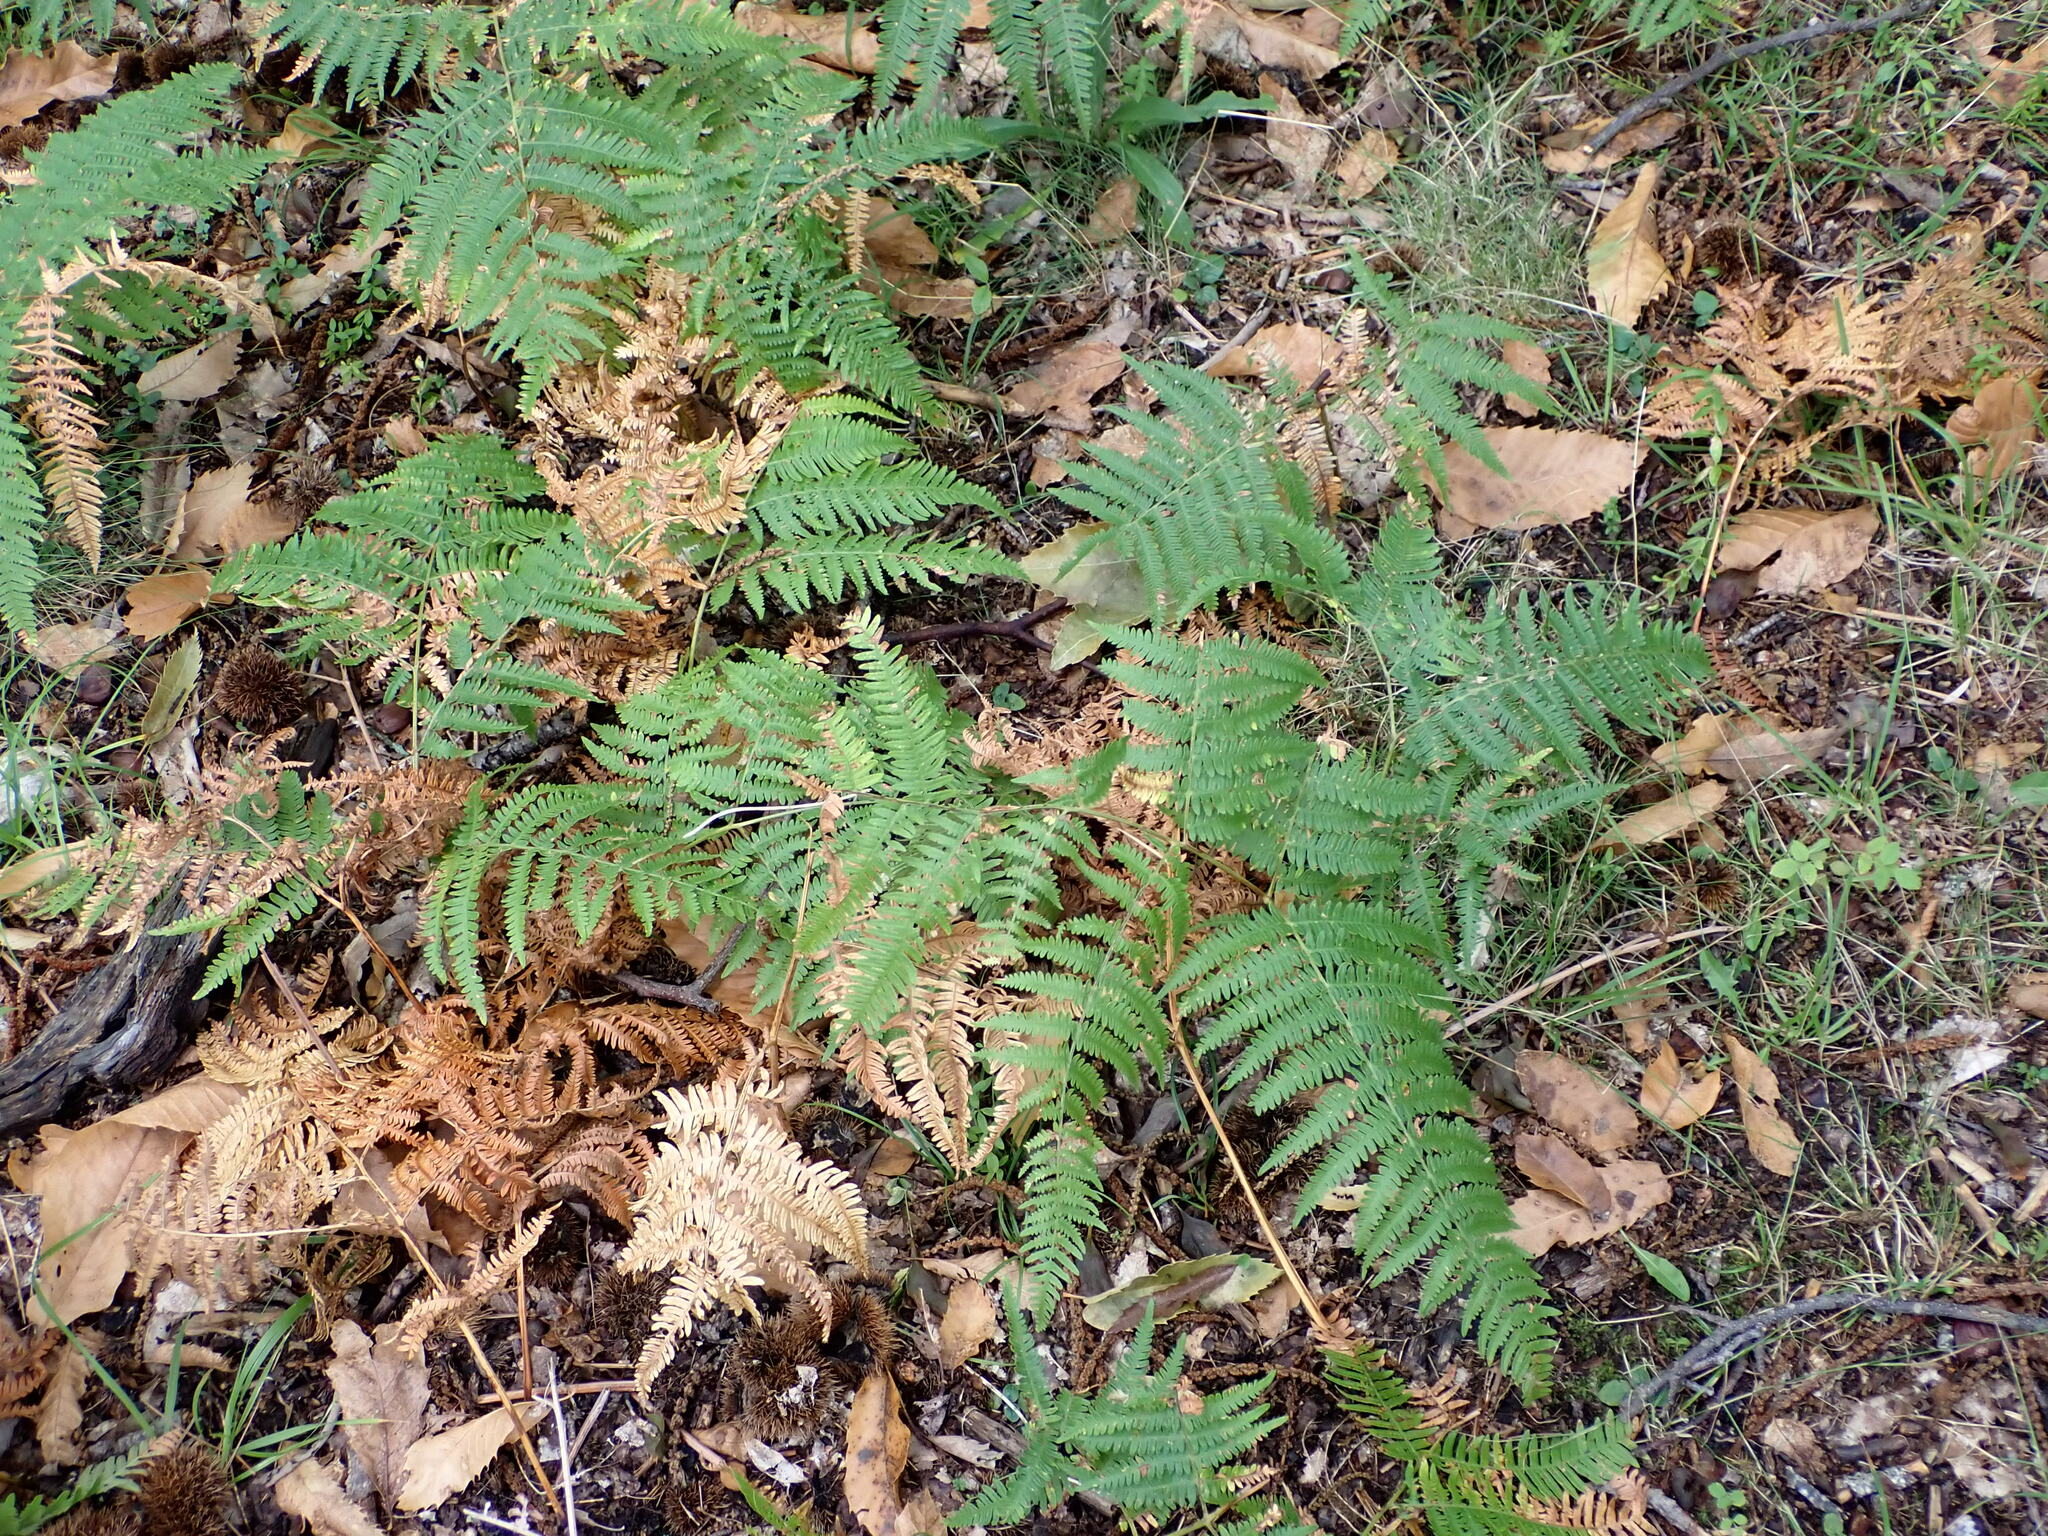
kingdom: Plantae
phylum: Tracheophyta
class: Polypodiopsida
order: Polypodiales
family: Dennstaedtiaceae
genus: Pteridium
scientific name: Pteridium aquilinum
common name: Bracken
